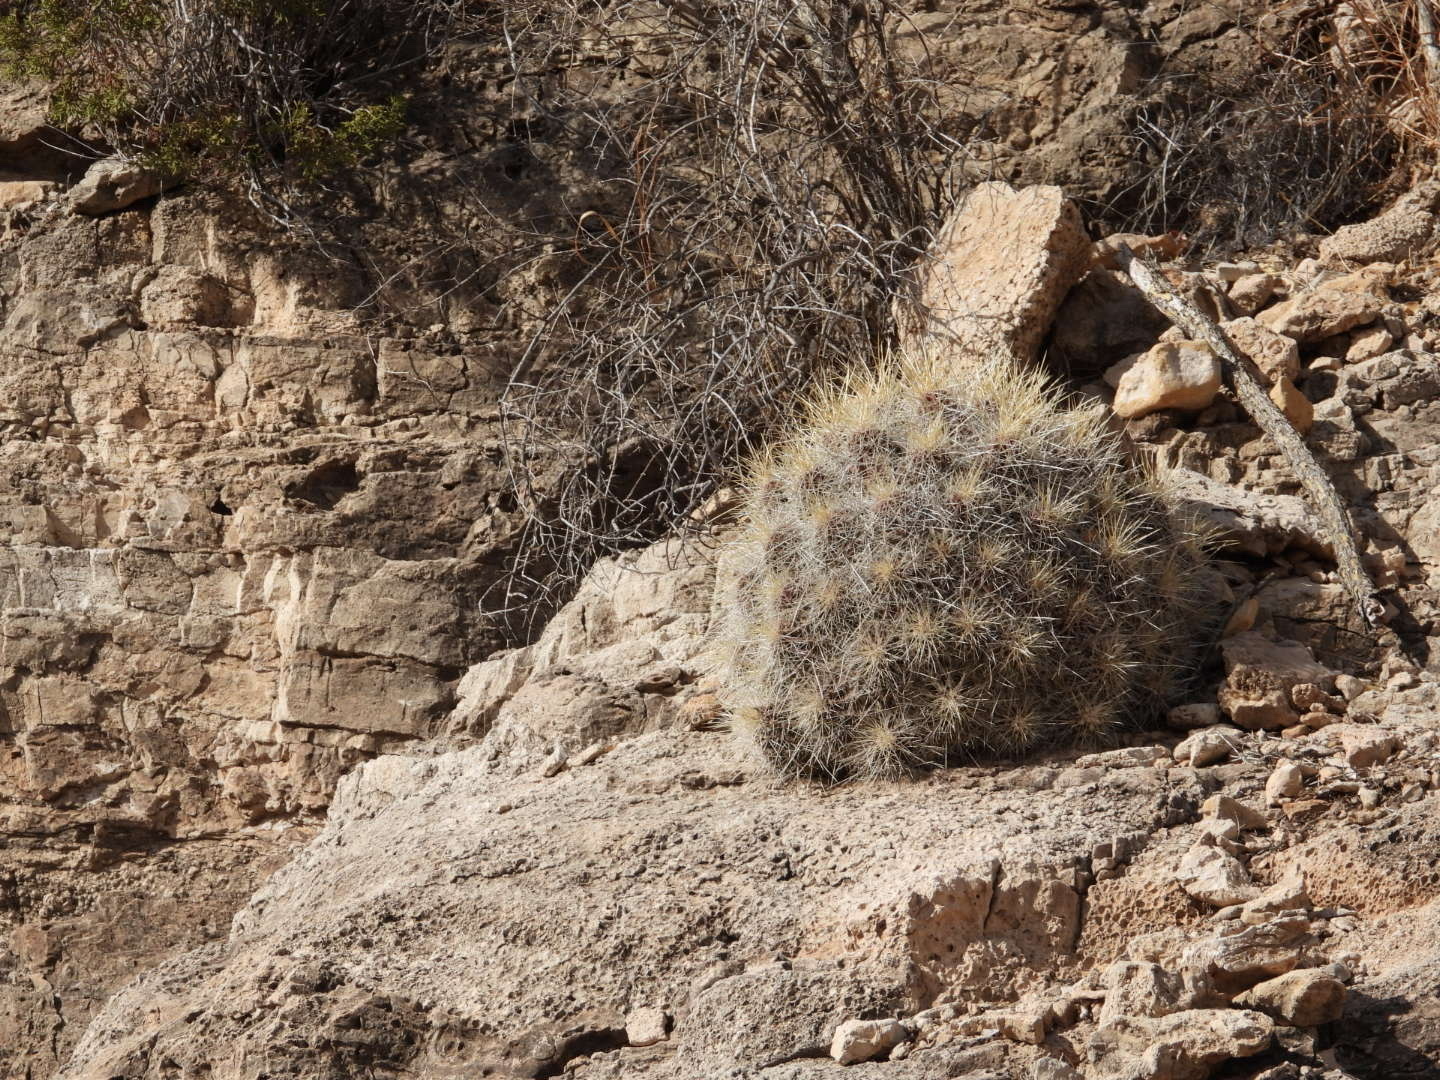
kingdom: Plantae
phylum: Tracheophyta
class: Magnoliopsida
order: Caryophyllales
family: Cactaceae
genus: Echinocereus
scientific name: Echinocereus stramineus
